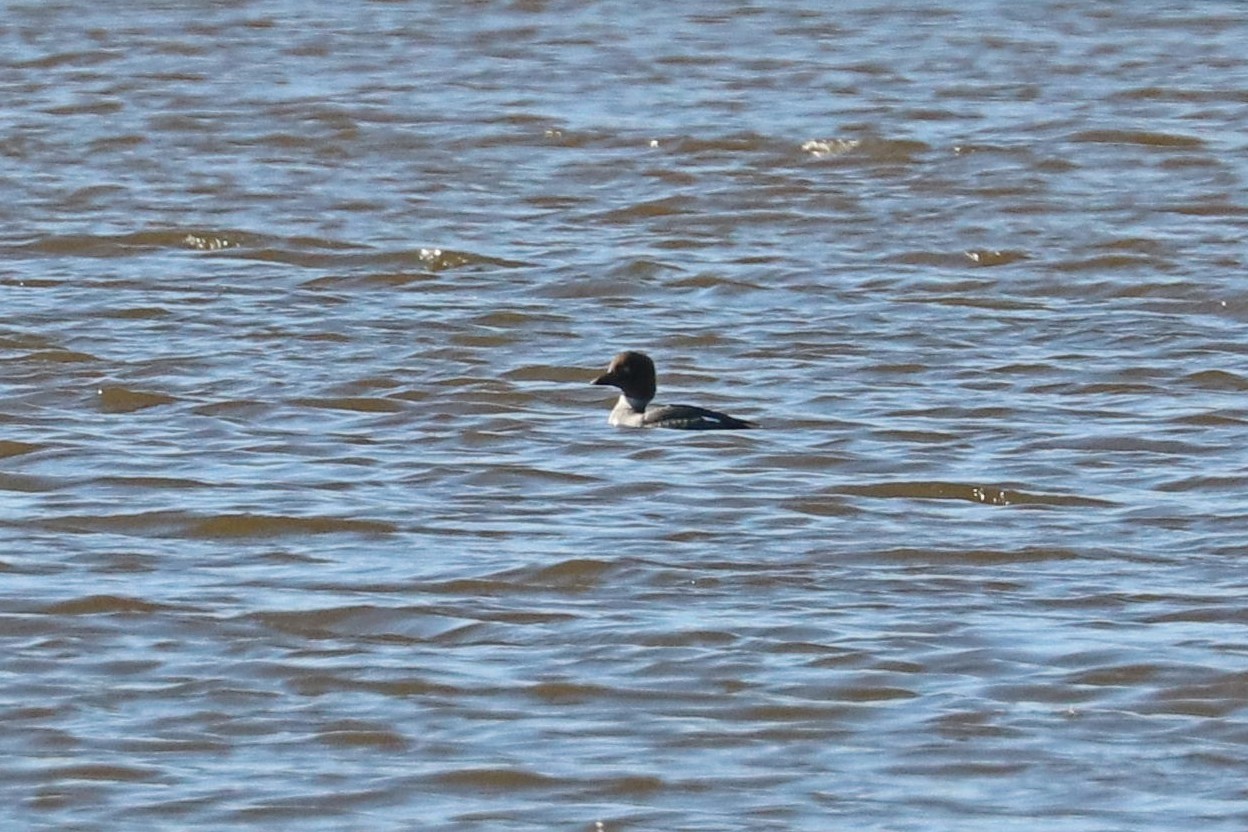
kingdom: Animalia
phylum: Chordata
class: Aves
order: Anseriformes
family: Anatidae
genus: Bucephala
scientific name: Bucephala clangula
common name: Common goldeneye
